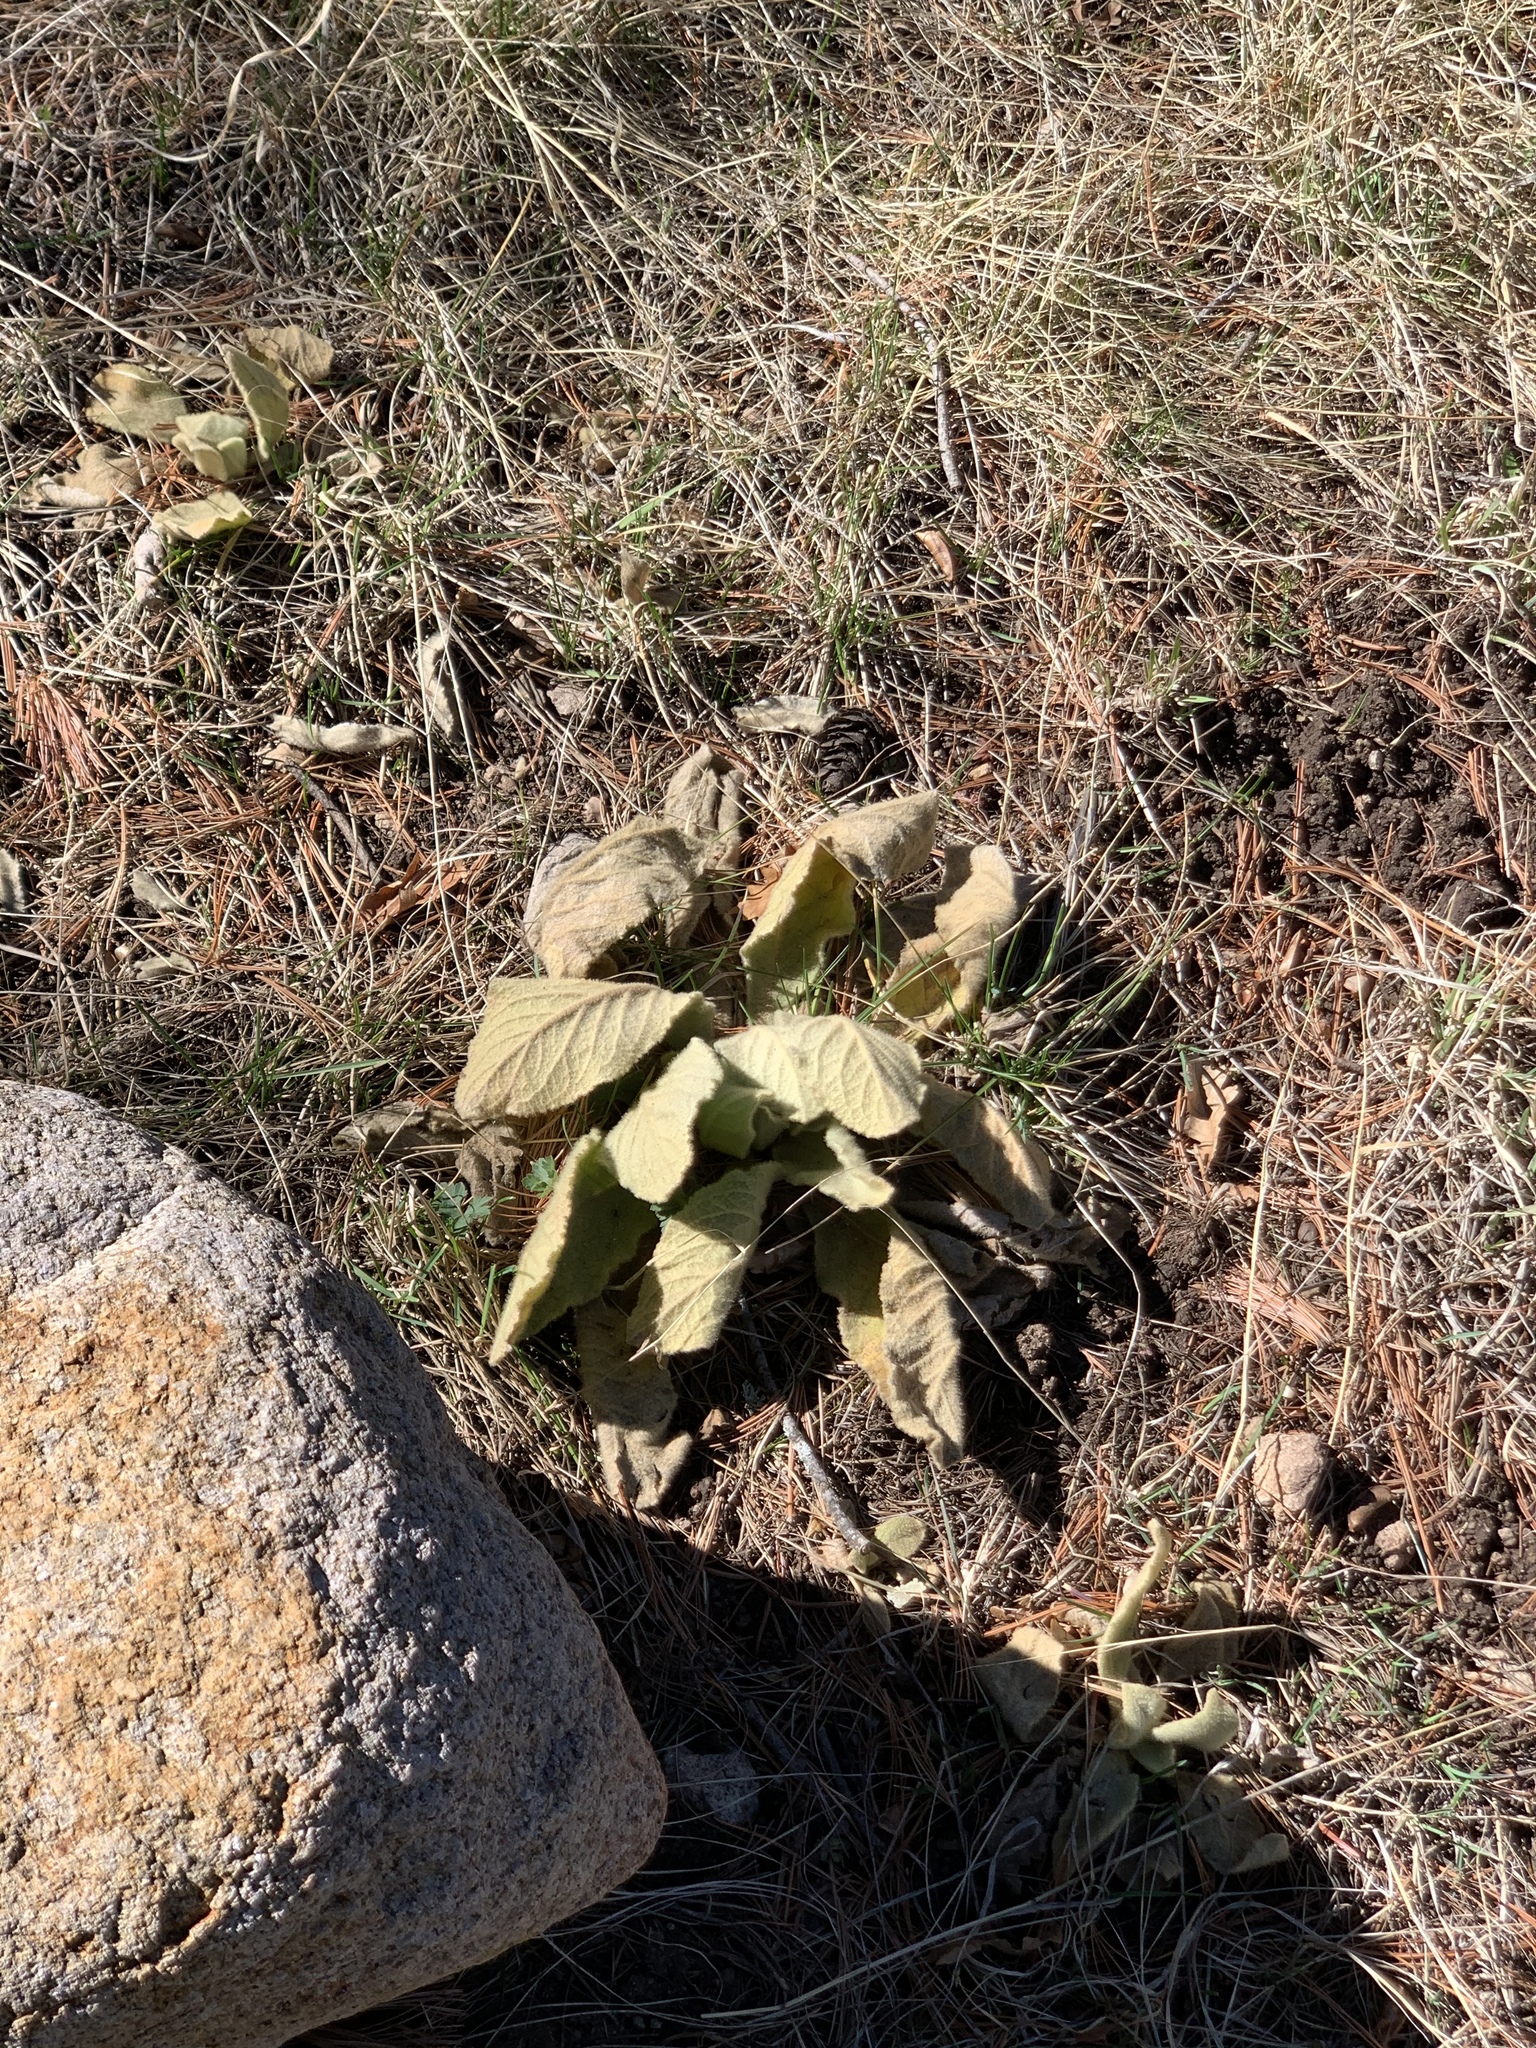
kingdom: Plantae
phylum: Tracheophyta
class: Magnoliopsida
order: Lamiales
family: Scrophulariaceae
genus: Verbascum
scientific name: Verbascum thapsus
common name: Common mullein
